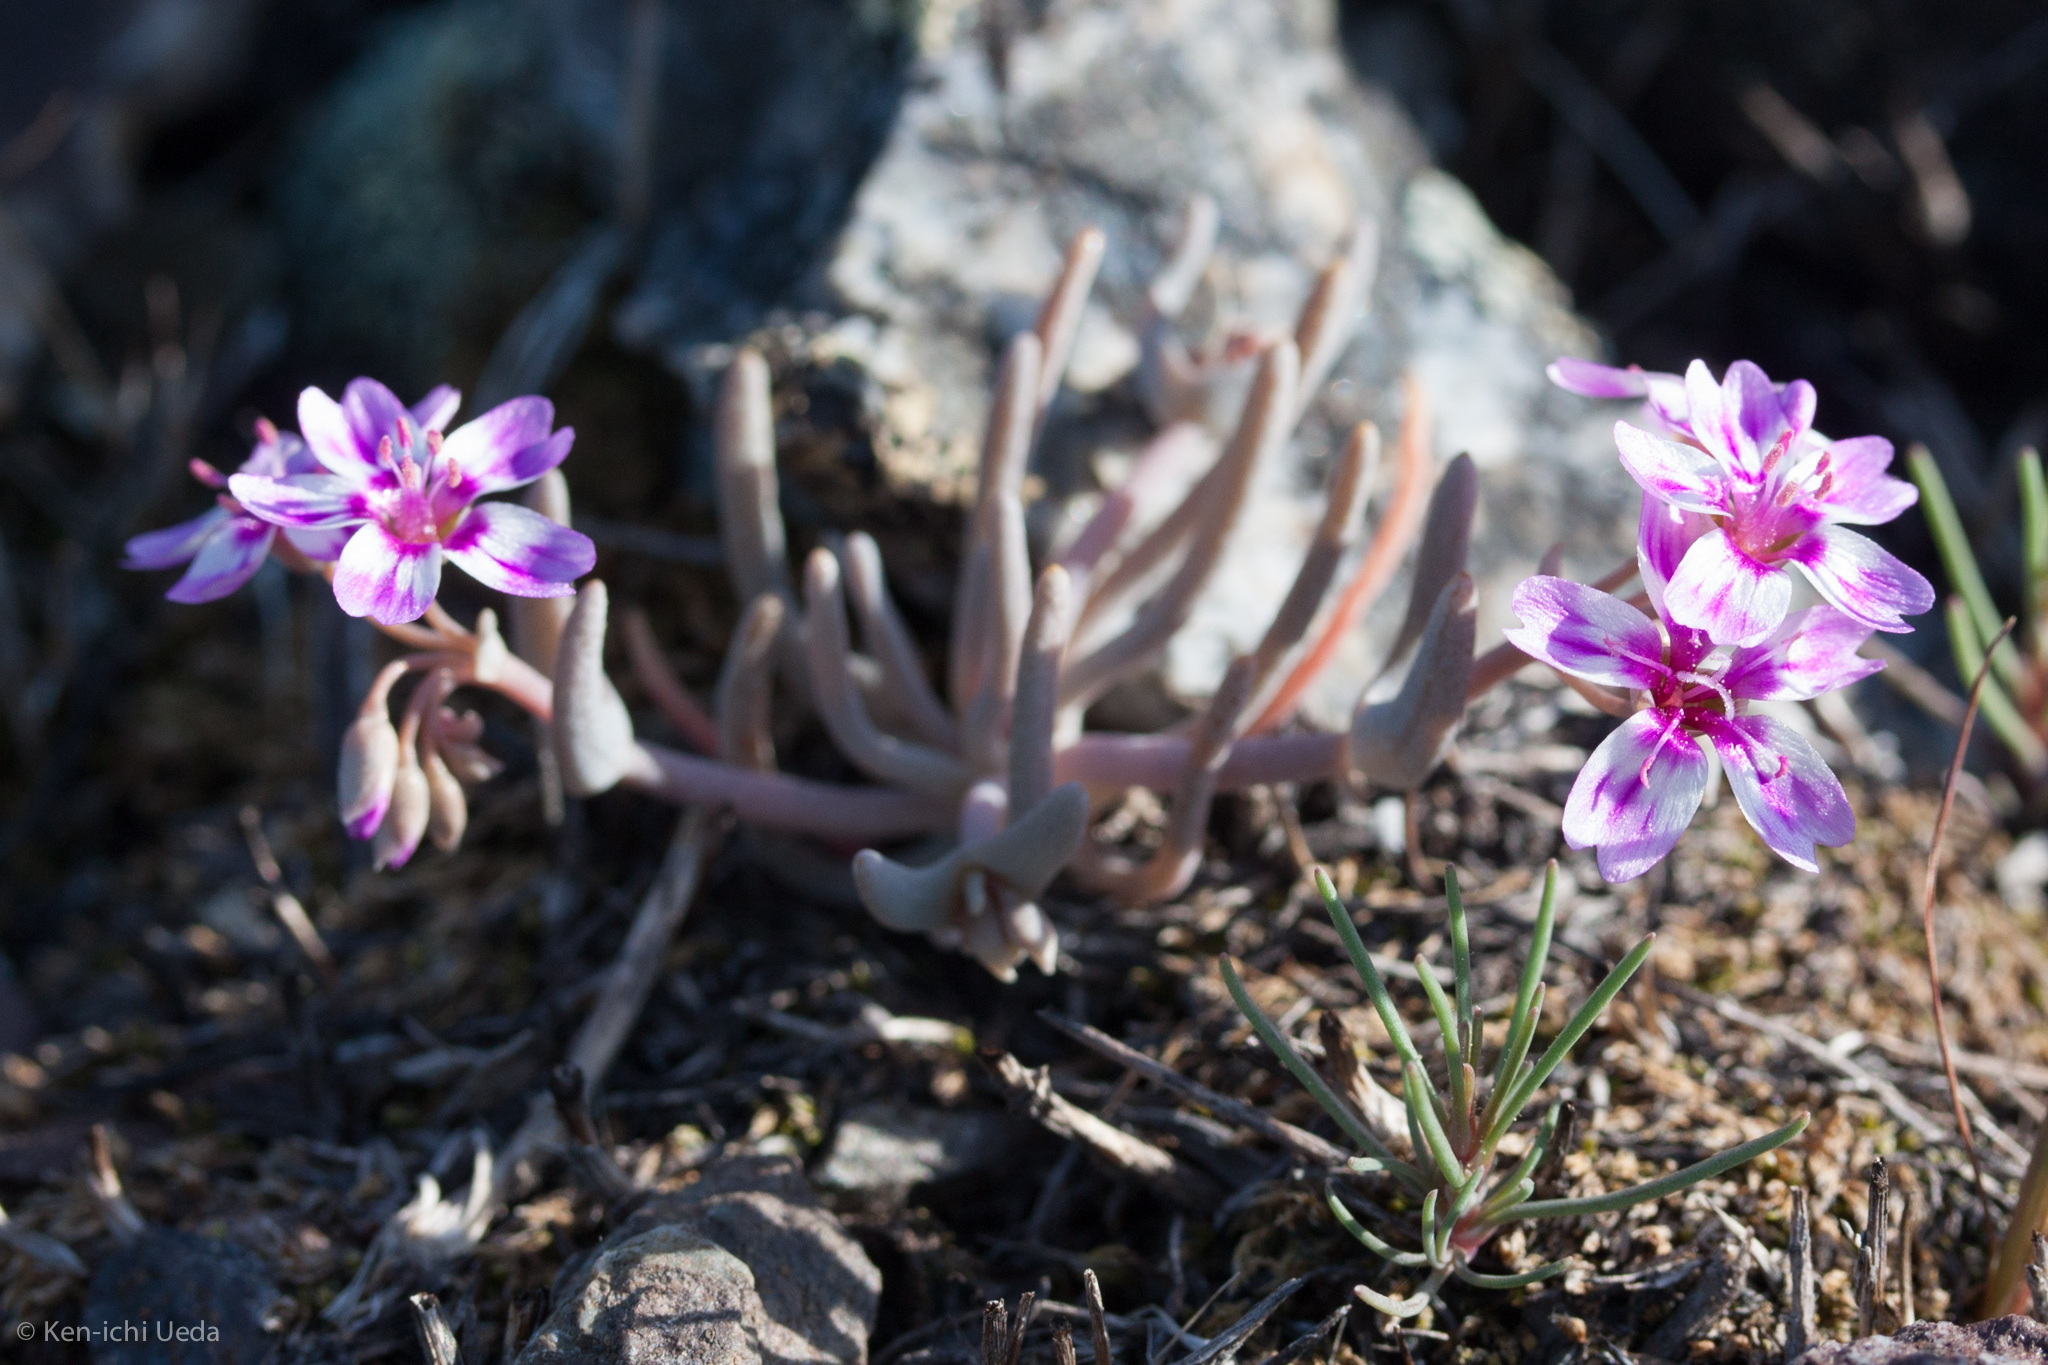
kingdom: Plantae
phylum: Tracheophyta
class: Magnoliopsida
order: Caryophyllales
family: Montiaceae
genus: Claytonia
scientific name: Claytonia gypsophiloides
